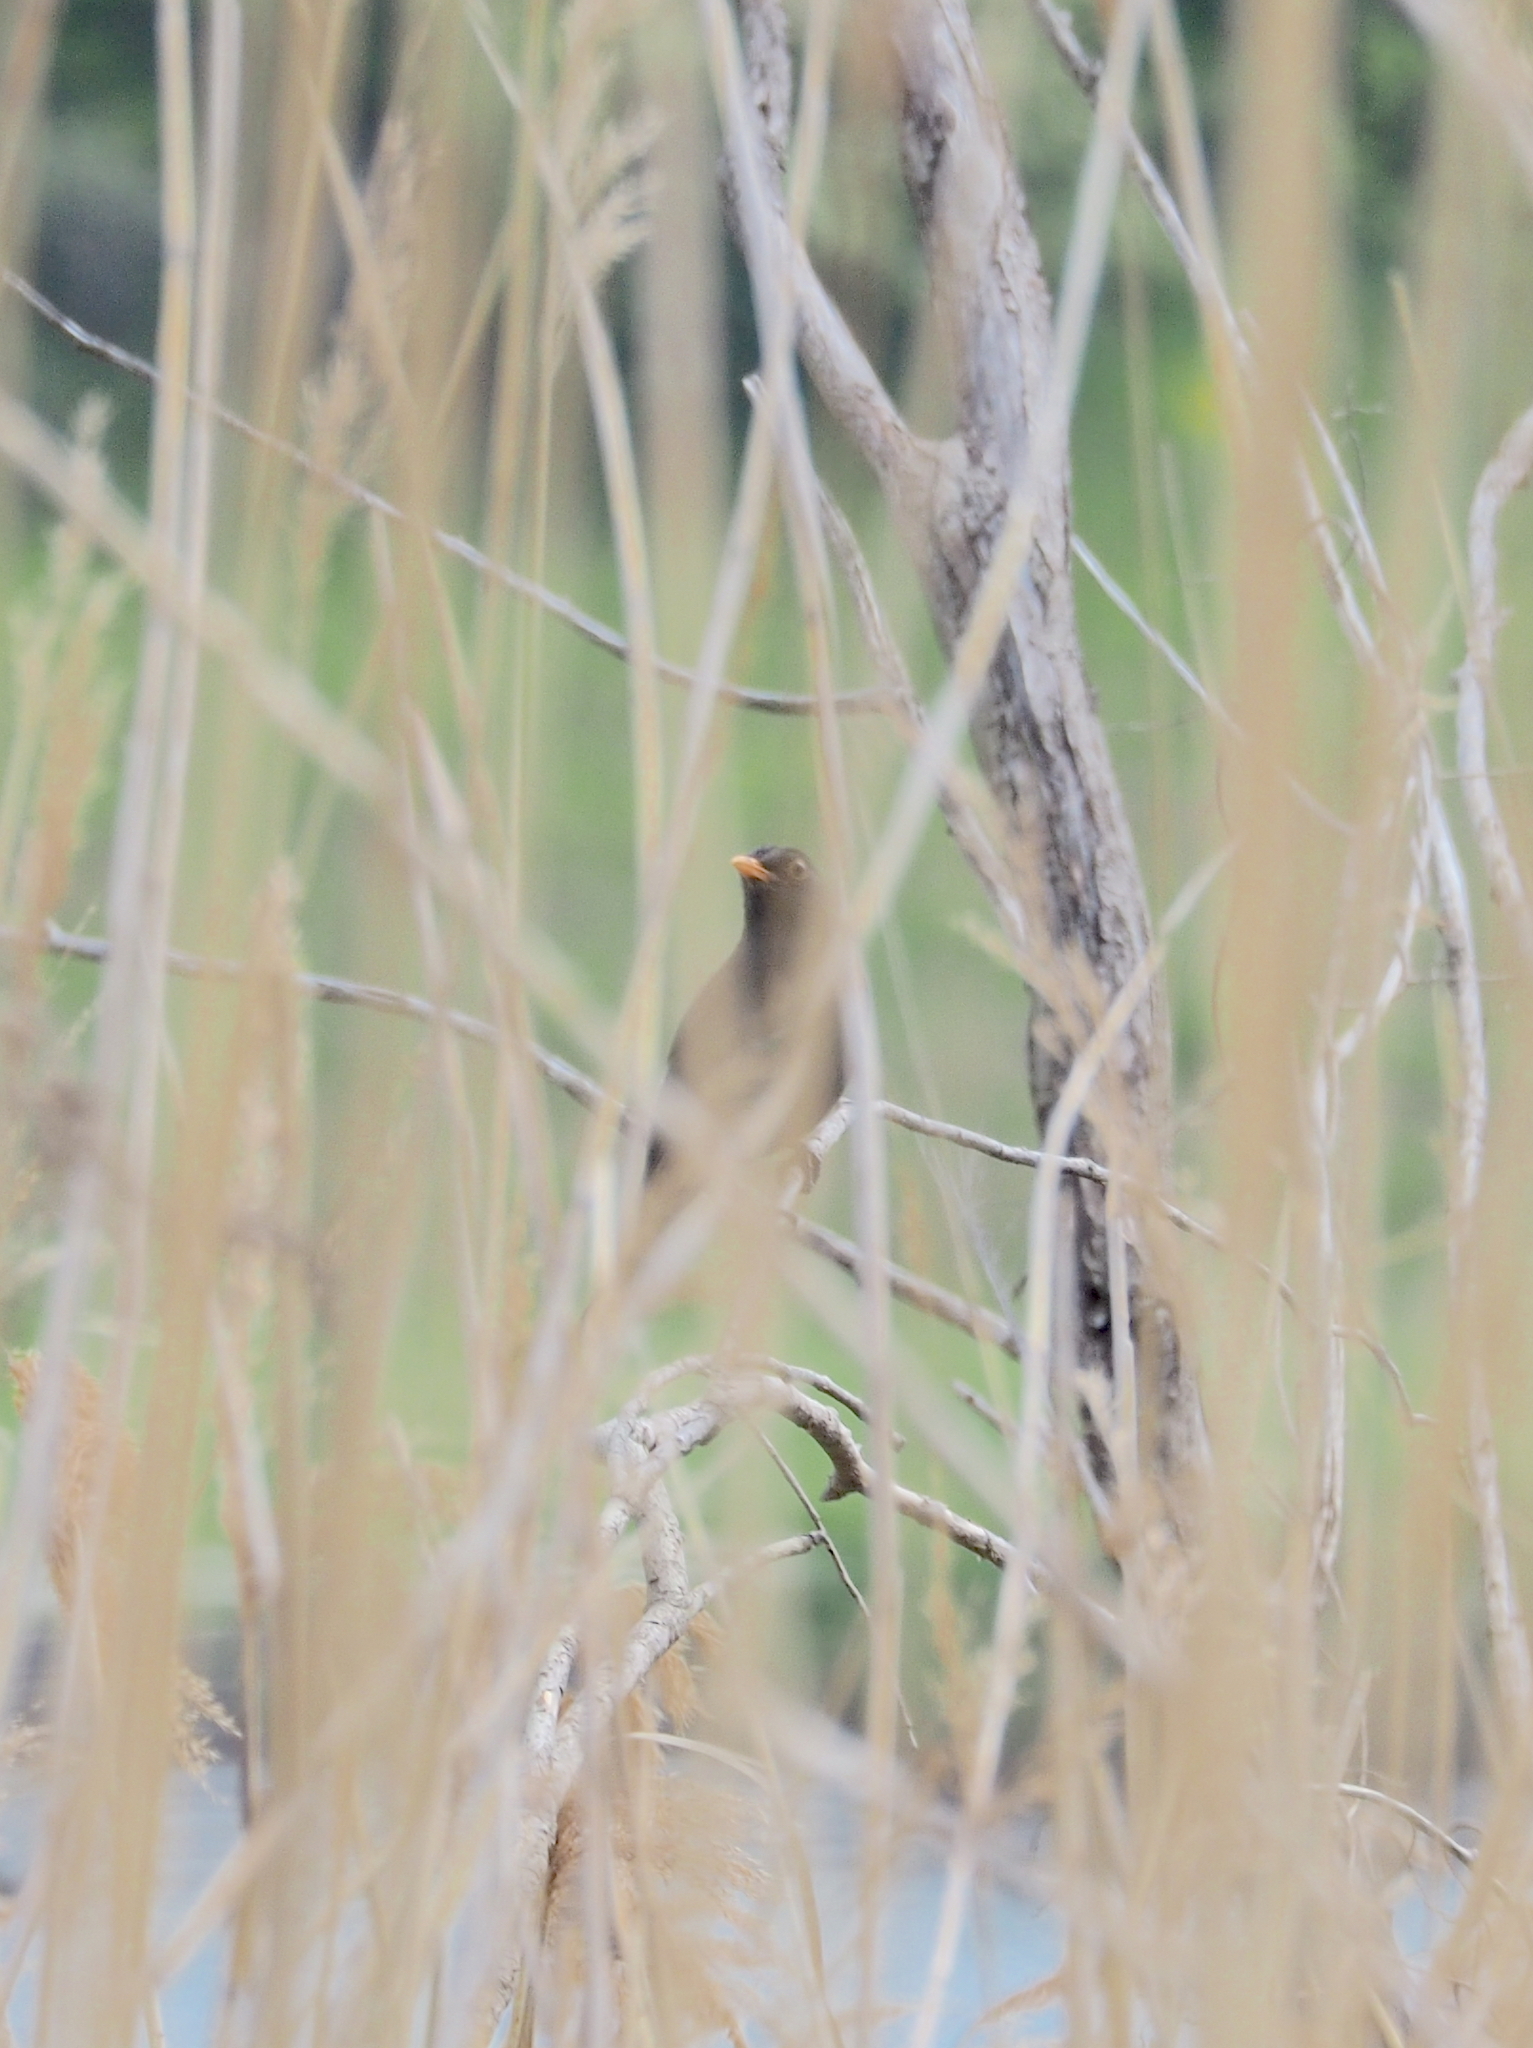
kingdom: Animalia
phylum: Chordata
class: Aves
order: Passeriformes
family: Turdidae
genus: Turdus
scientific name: Turdus merula
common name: Common blackbird
